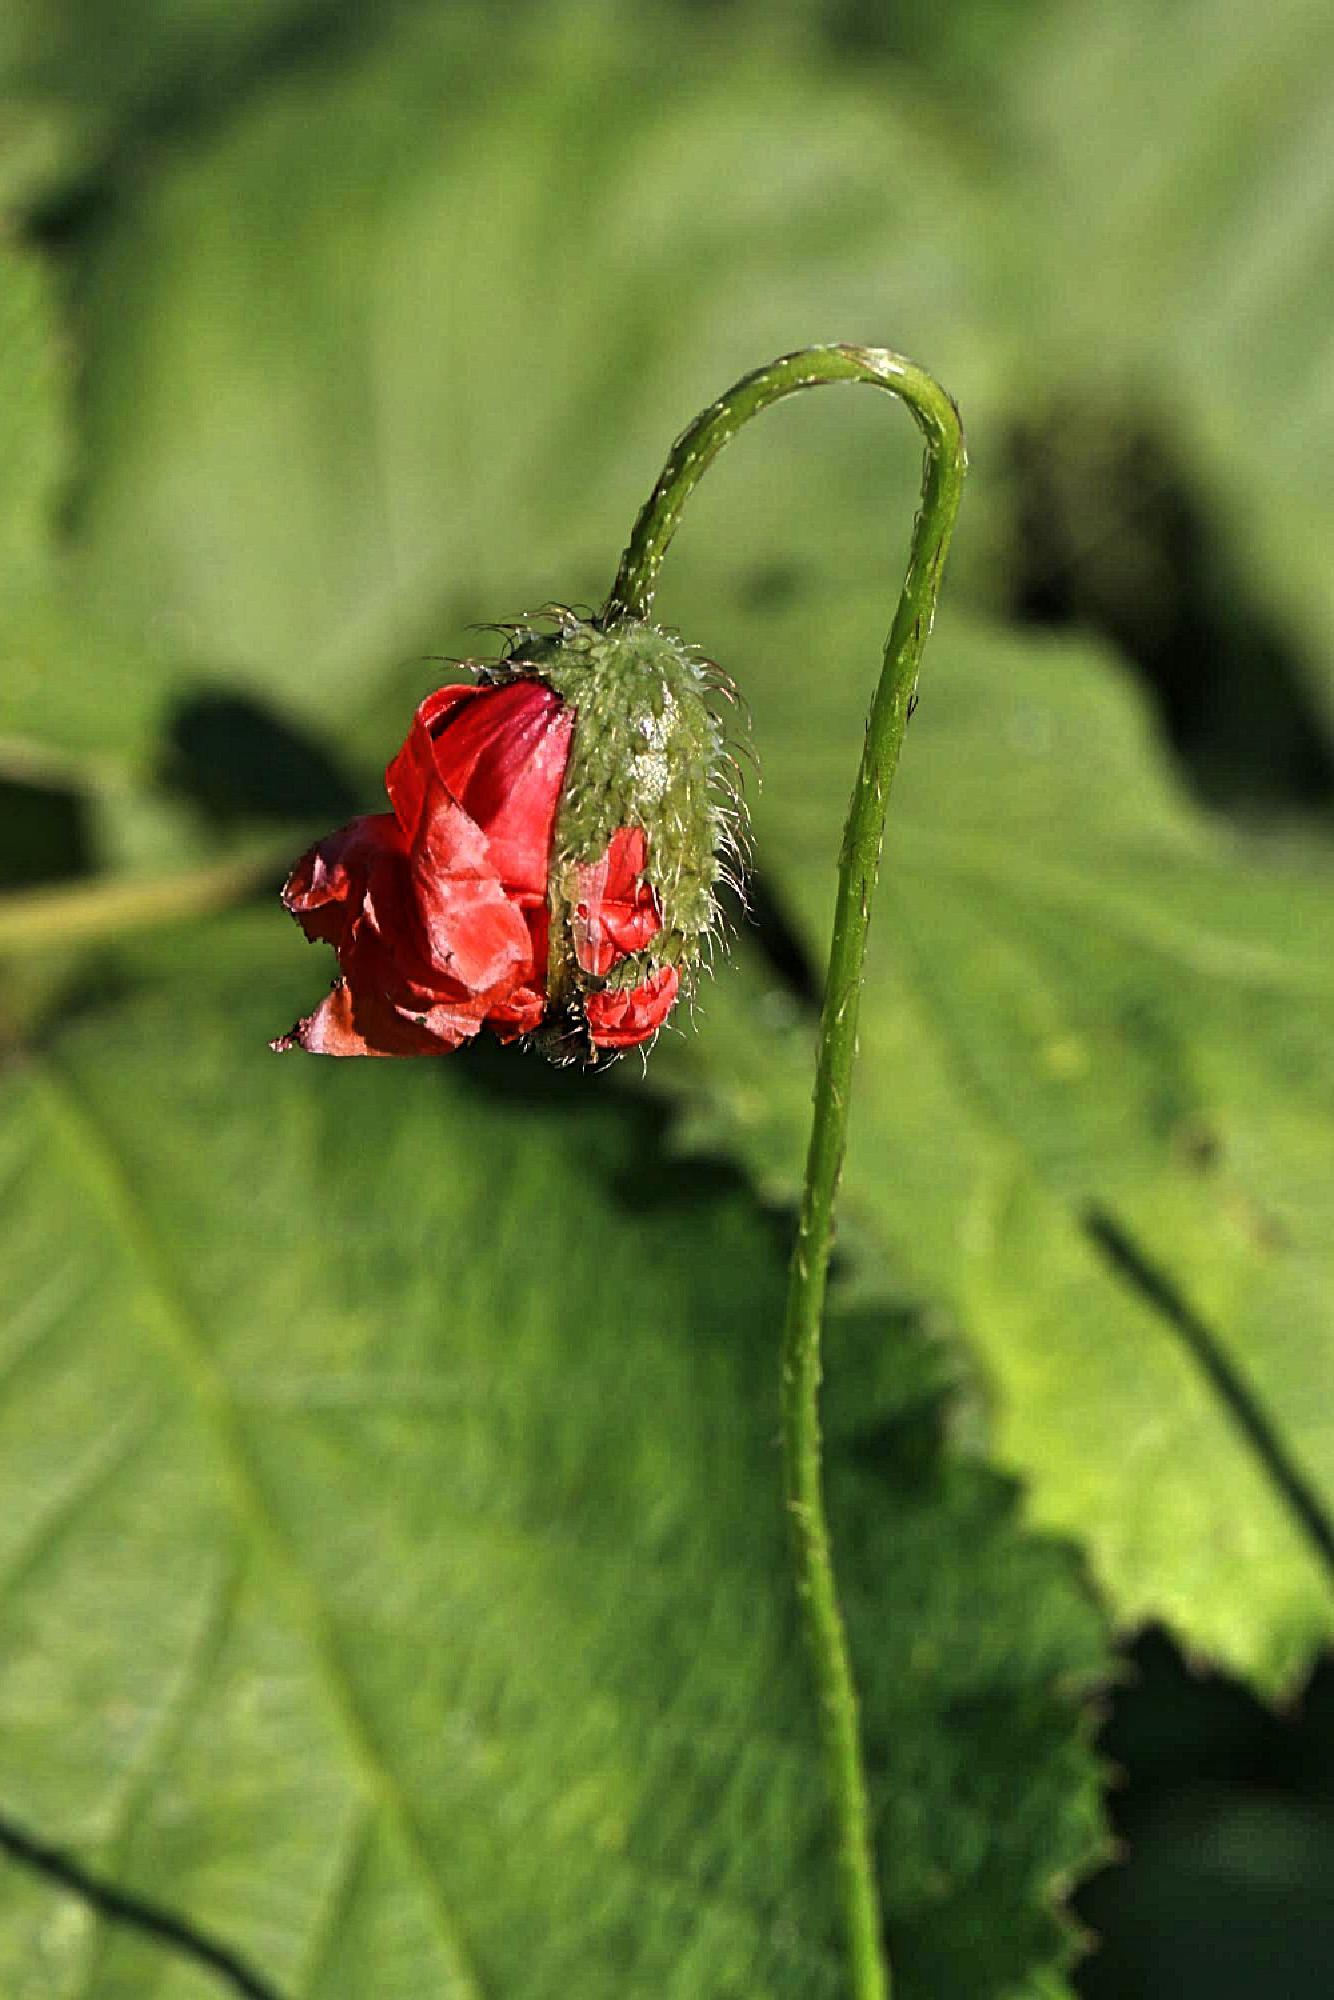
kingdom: Plantae
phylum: Tracheophyta
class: Magnoliopsida
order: Ranunculales
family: Papaveraceae
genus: Papaver
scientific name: Papaver rhoeas
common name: Corn poppy
